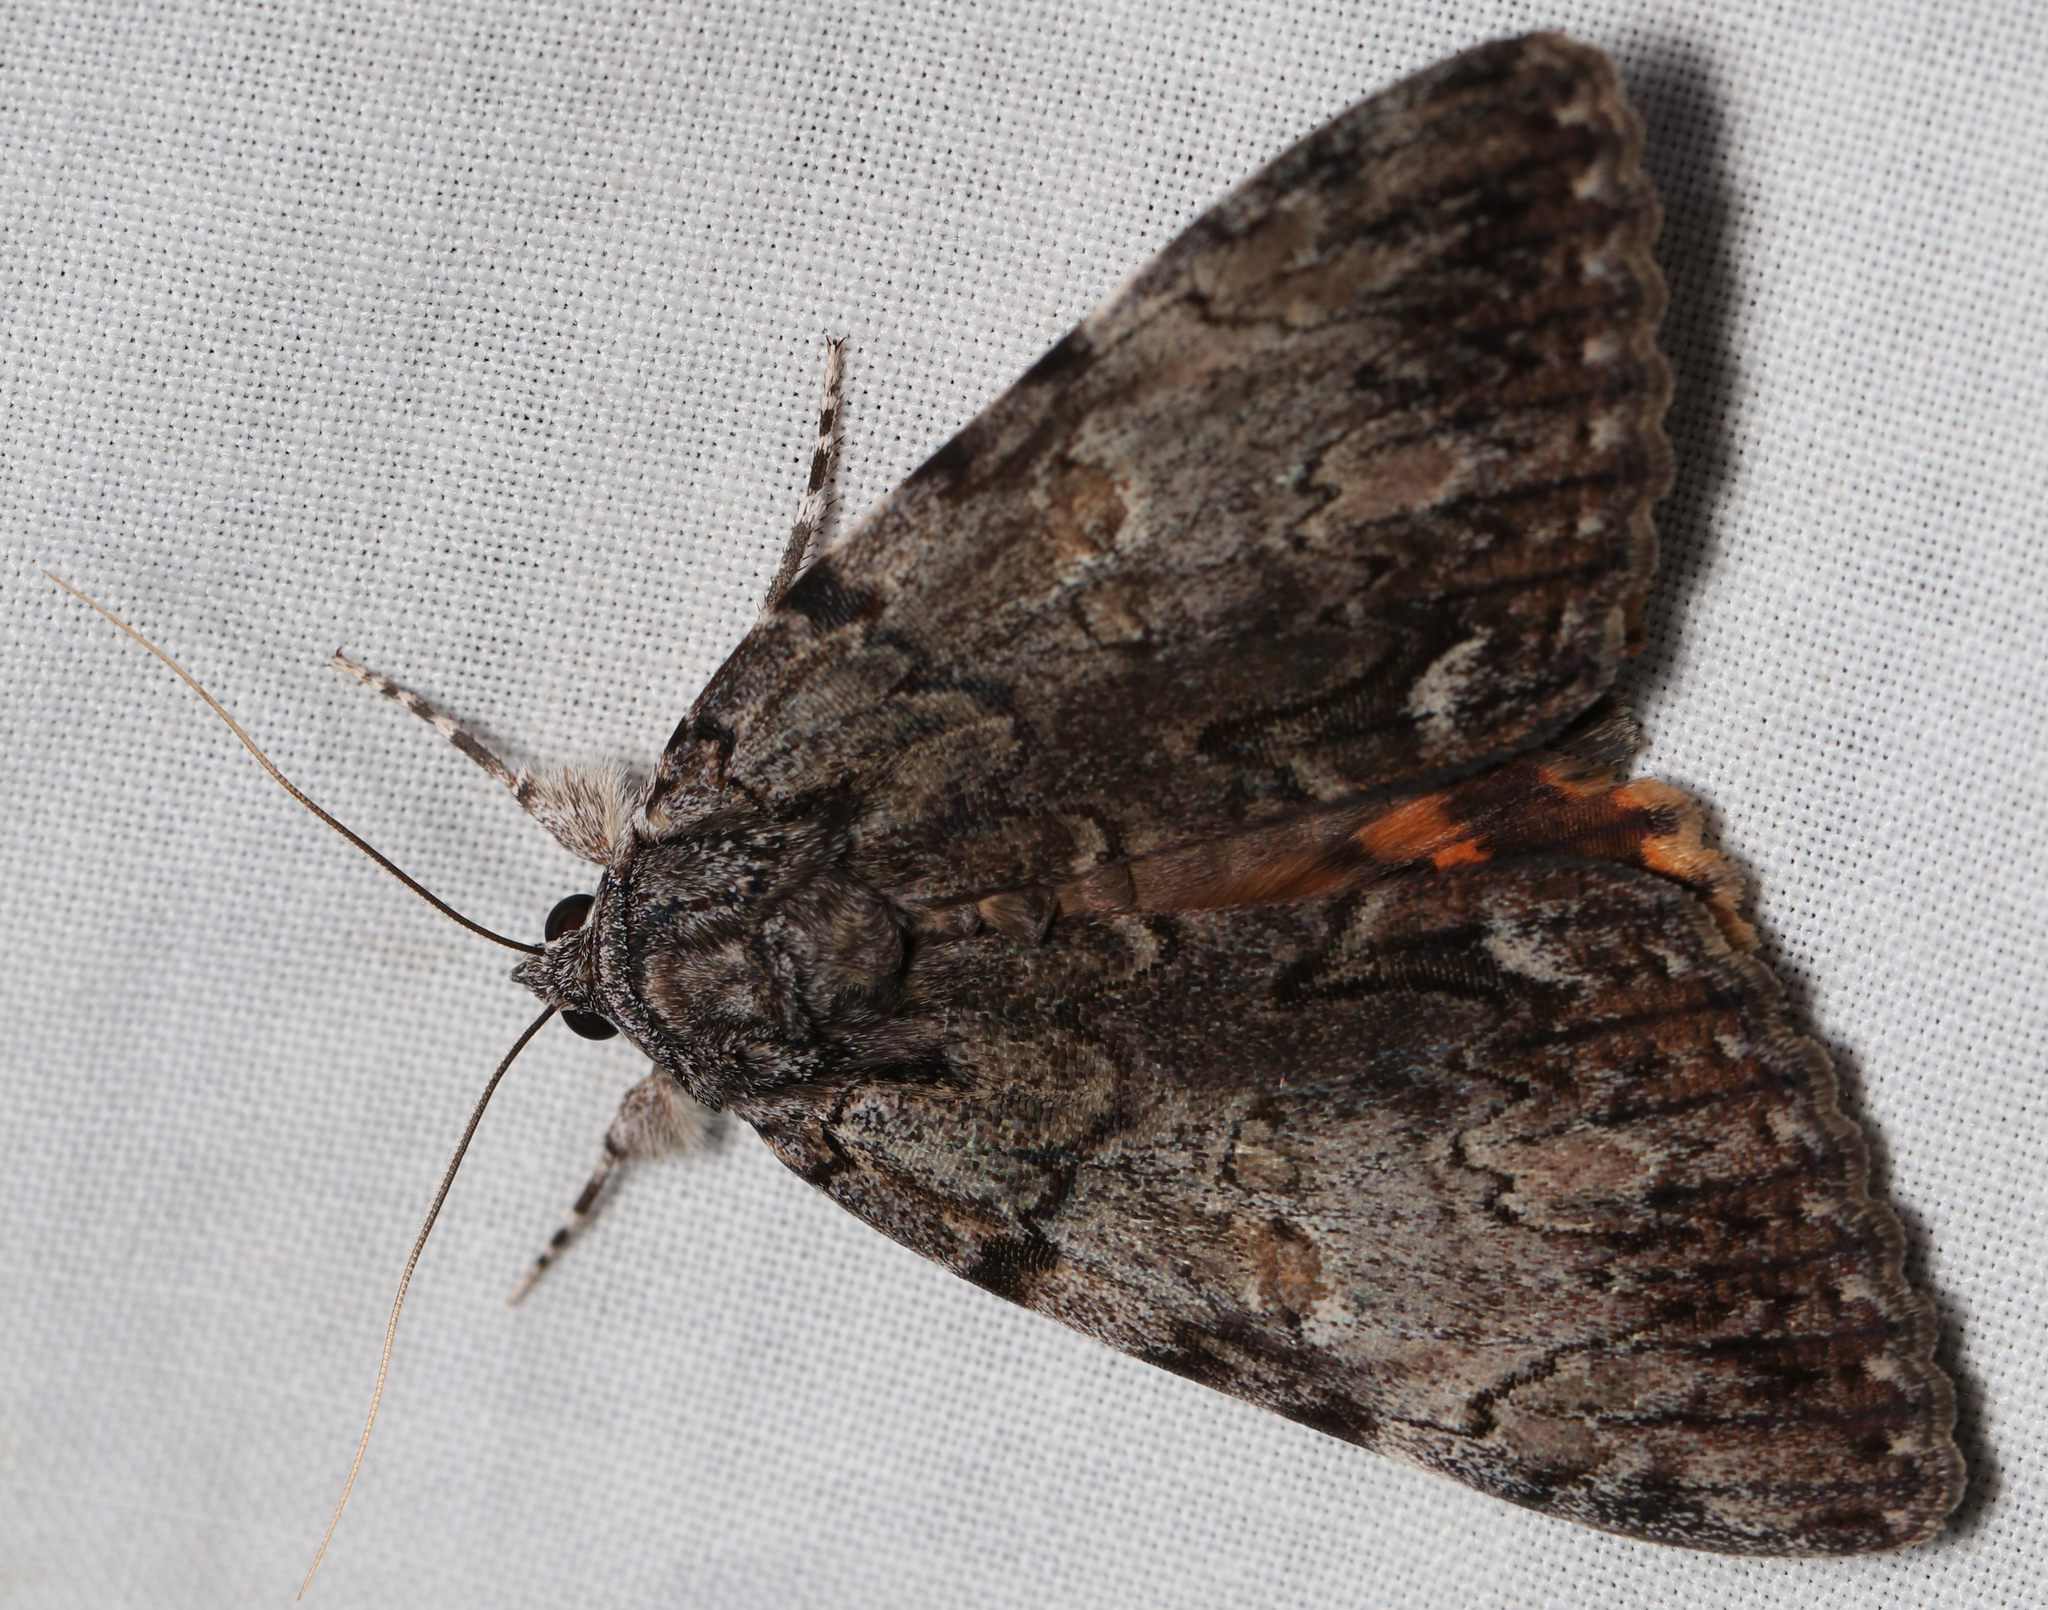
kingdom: Animalia
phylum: Arthropoda
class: Insecta
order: Lepidoptera
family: Erebidae
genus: Catocala
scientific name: Catocala palaeogama
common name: Oldwife underwing
